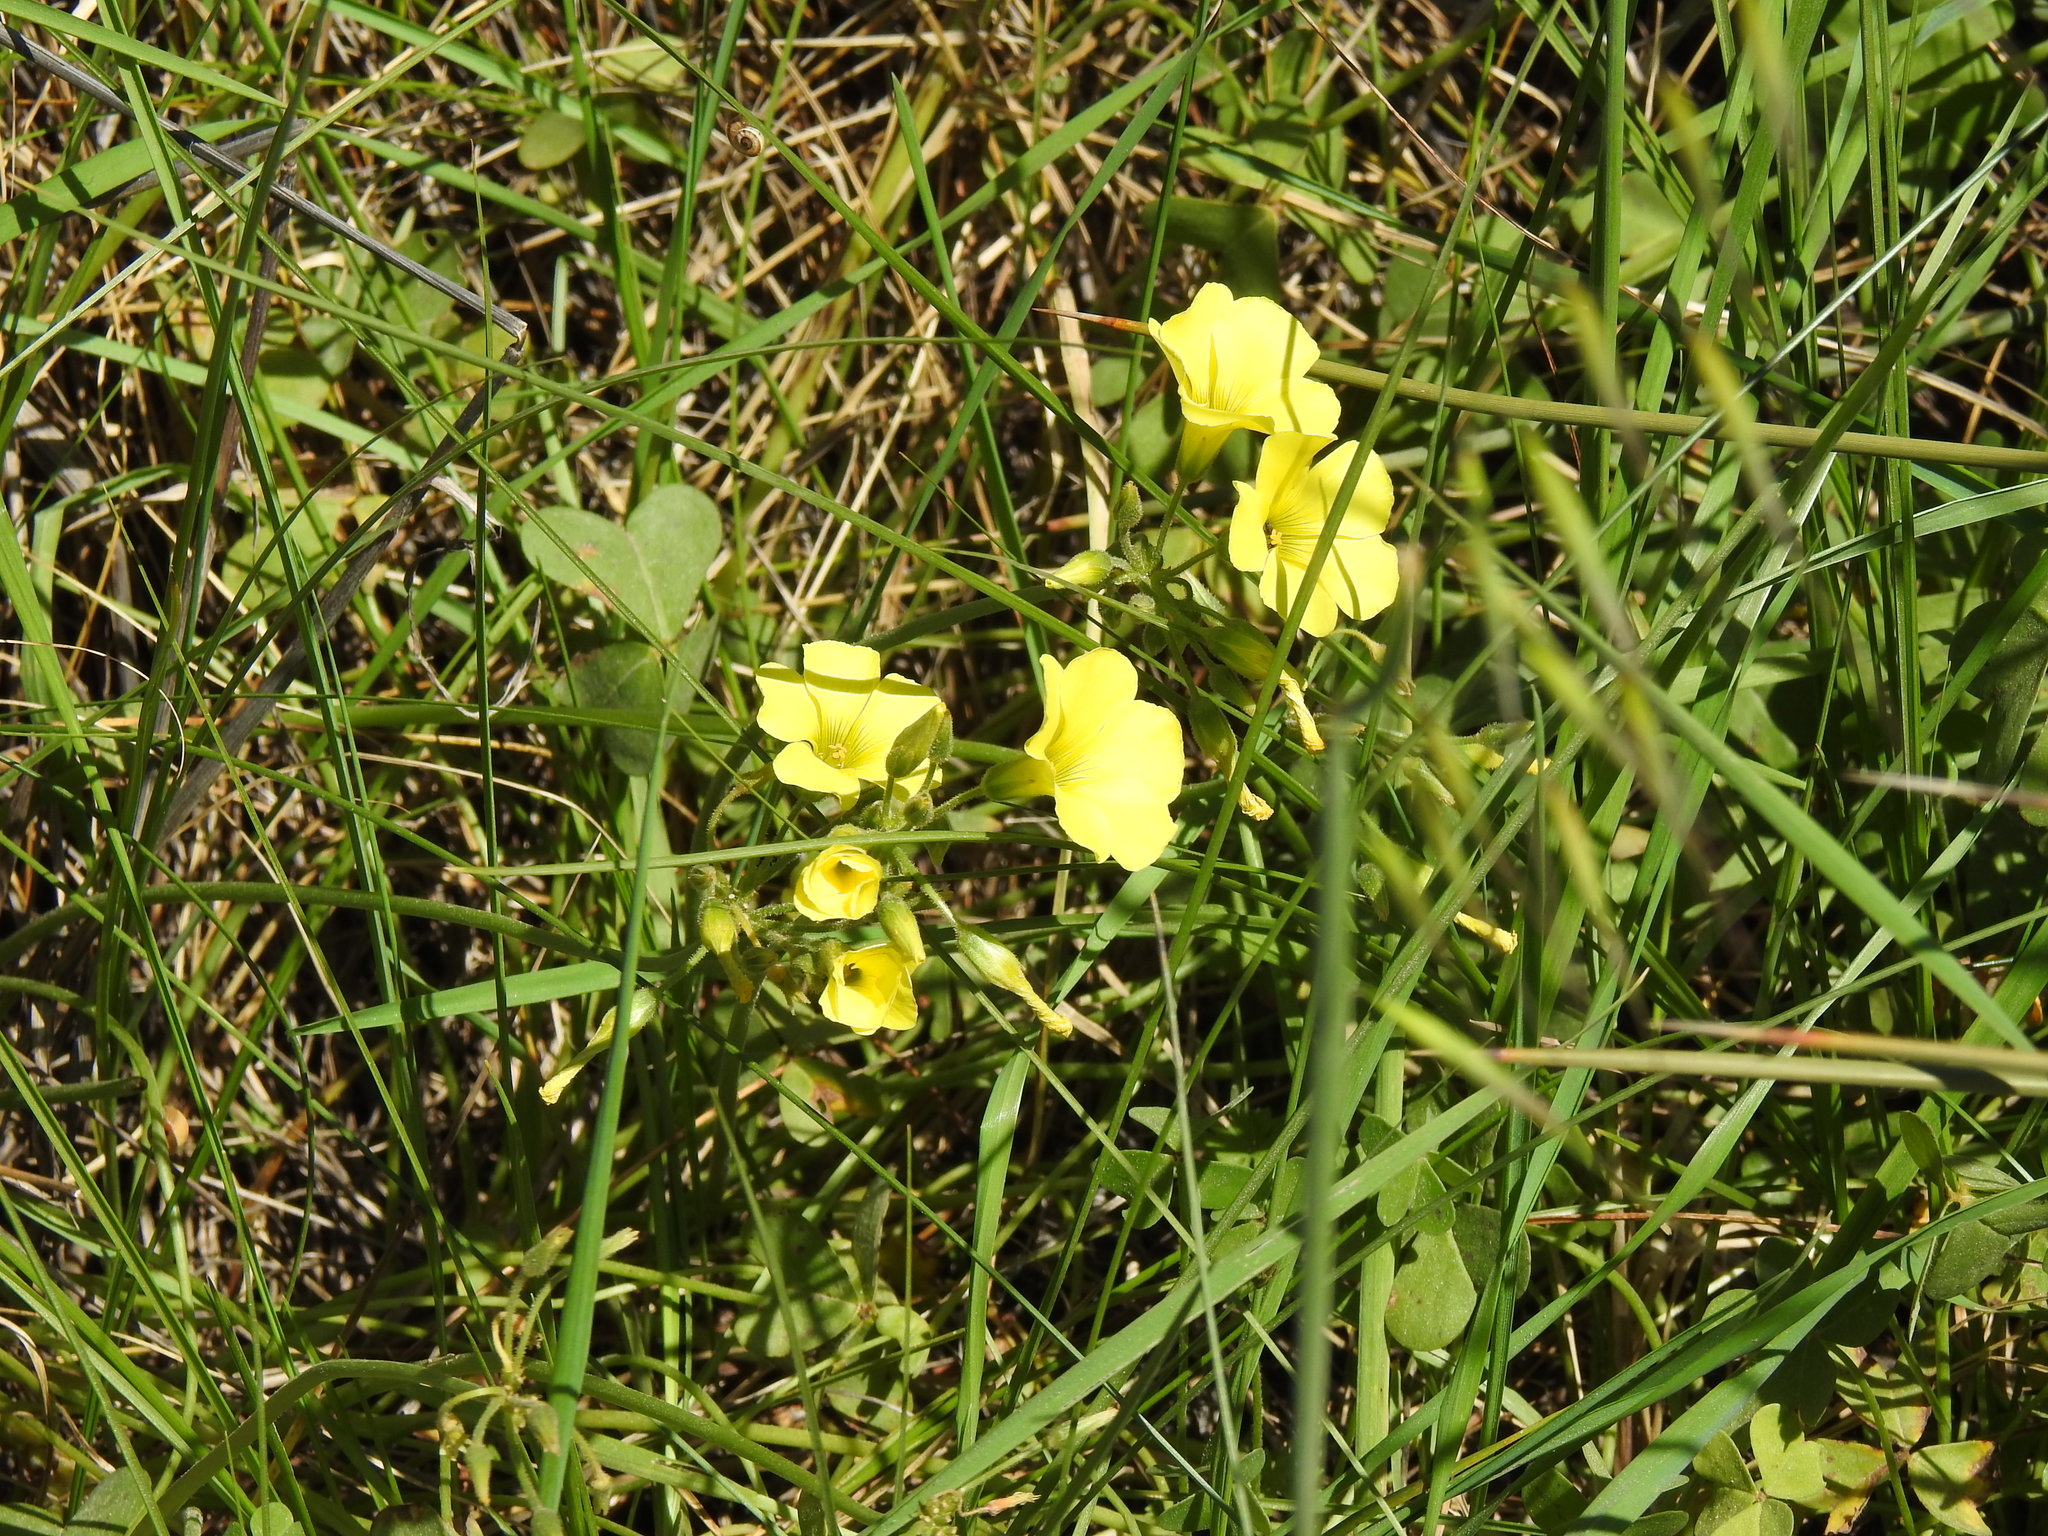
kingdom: Plantae
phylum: Tracheophyta
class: Magnoliopsida
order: Oxalidales
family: Oxalidaceae
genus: Oxalis
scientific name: Oxalis pes-caprae
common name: Bermuda-buttercup
